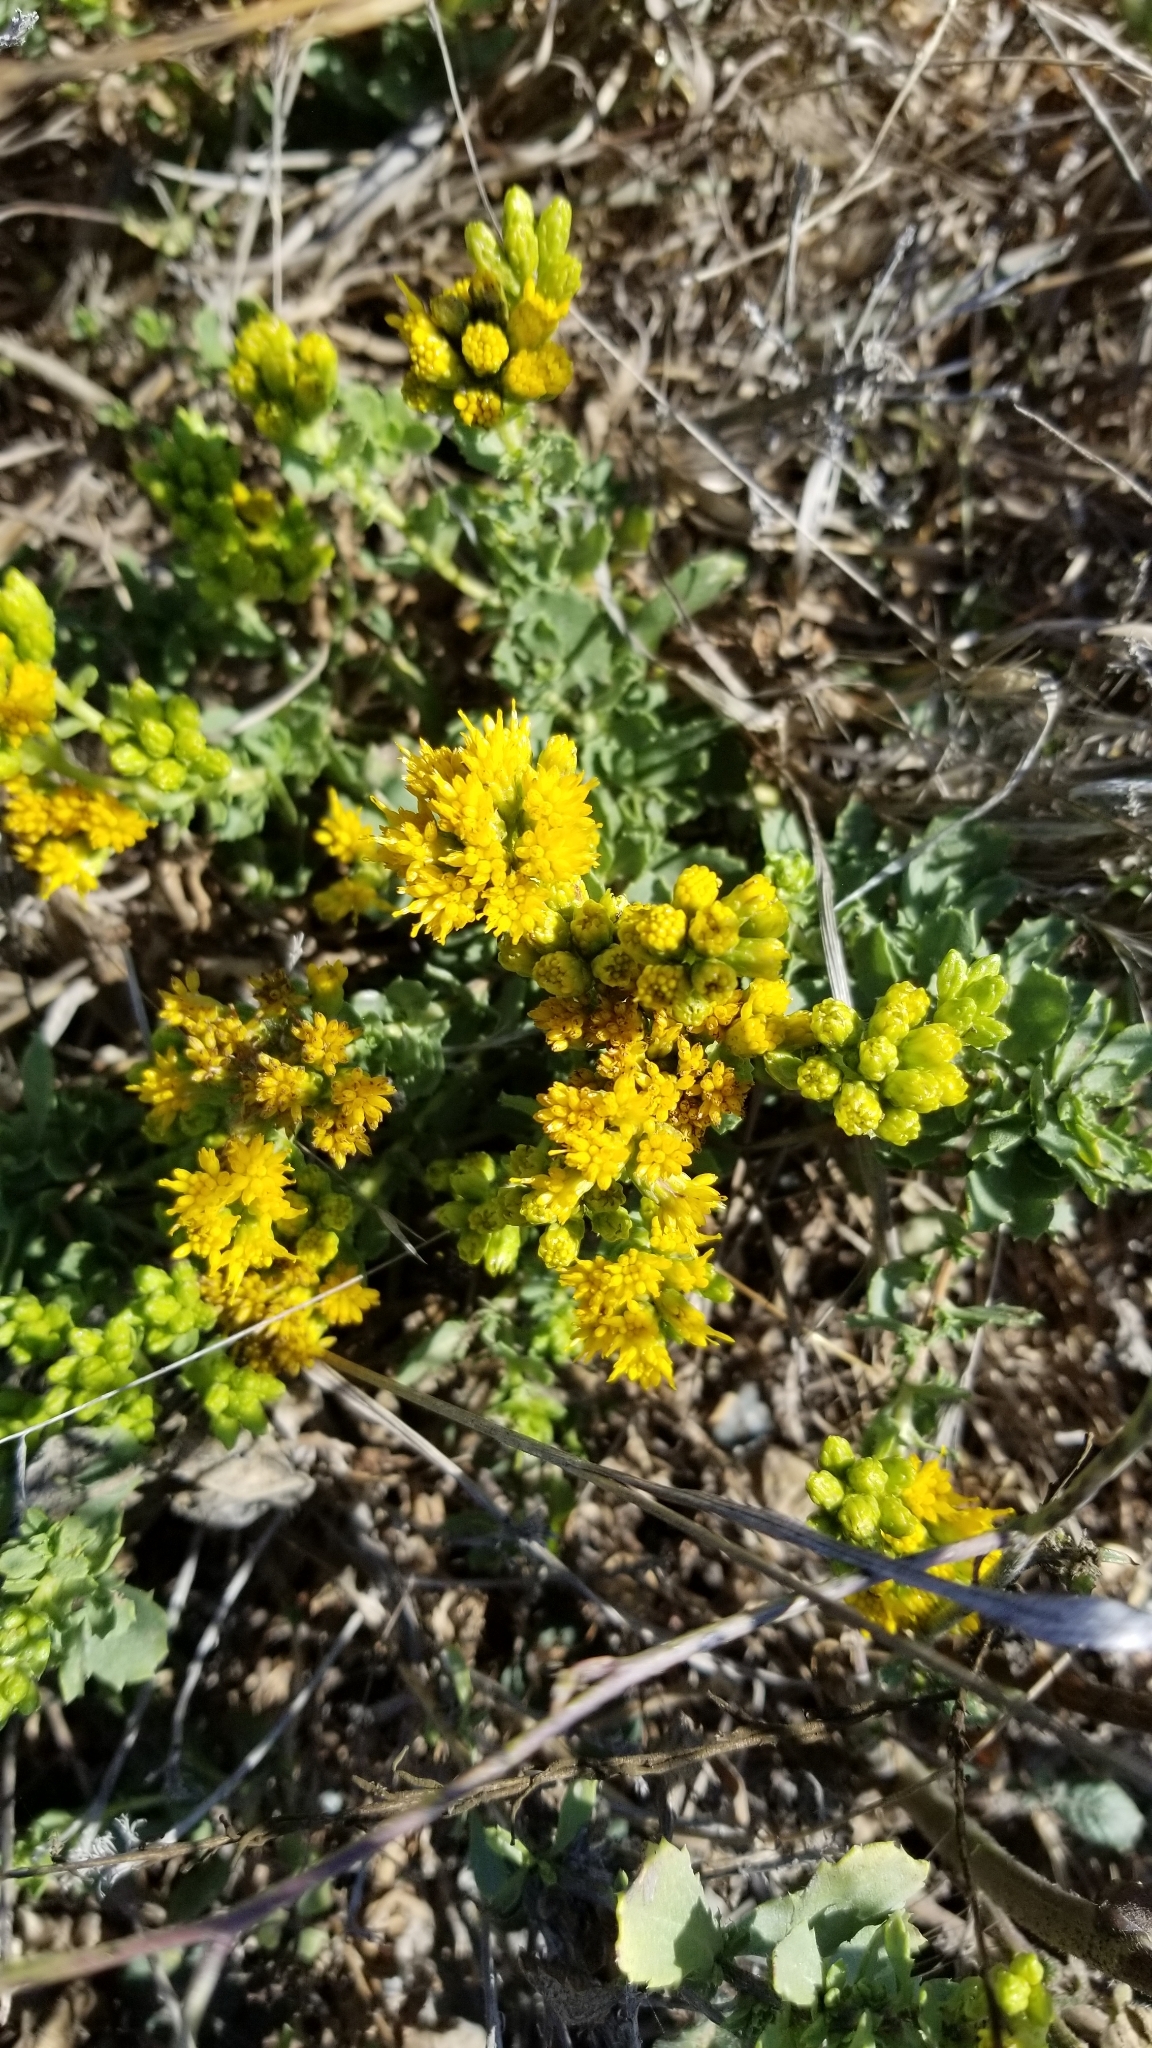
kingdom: Plantae
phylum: Tracheophyta
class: Magnoliopsida
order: Asterales
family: Asteraceae
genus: Isocoma
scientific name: Isocoma menziesii
